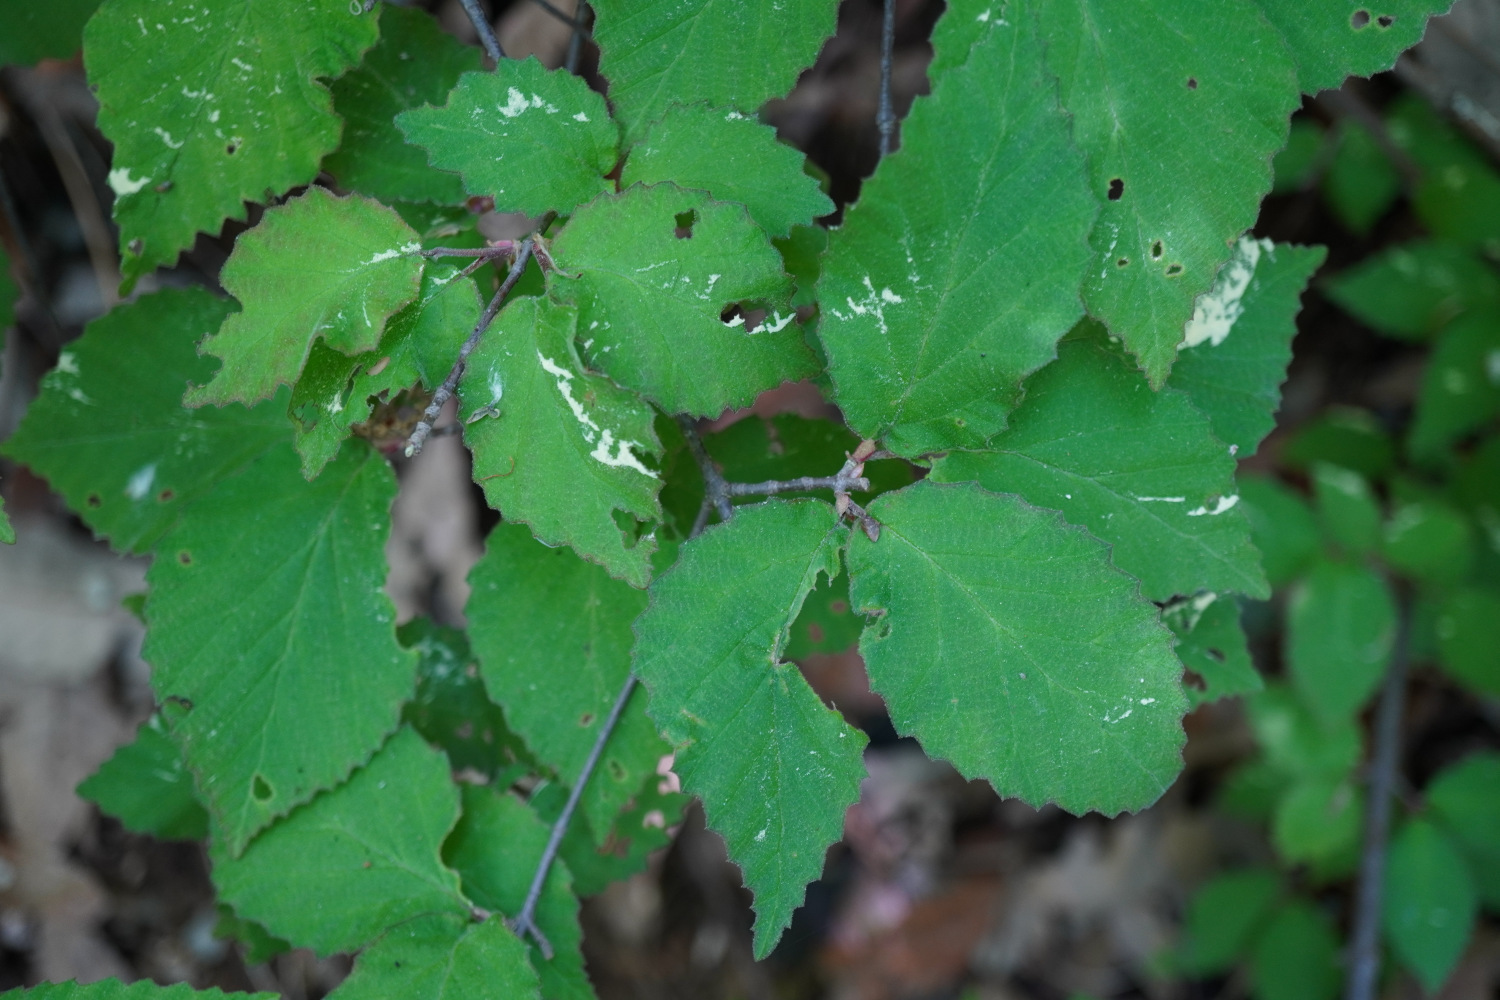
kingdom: Plantae
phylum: Tracheophyta
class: Magnoliopsida
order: Dipsacales
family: Viburnaceae
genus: Viburnum
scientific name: Viburnum erosum
